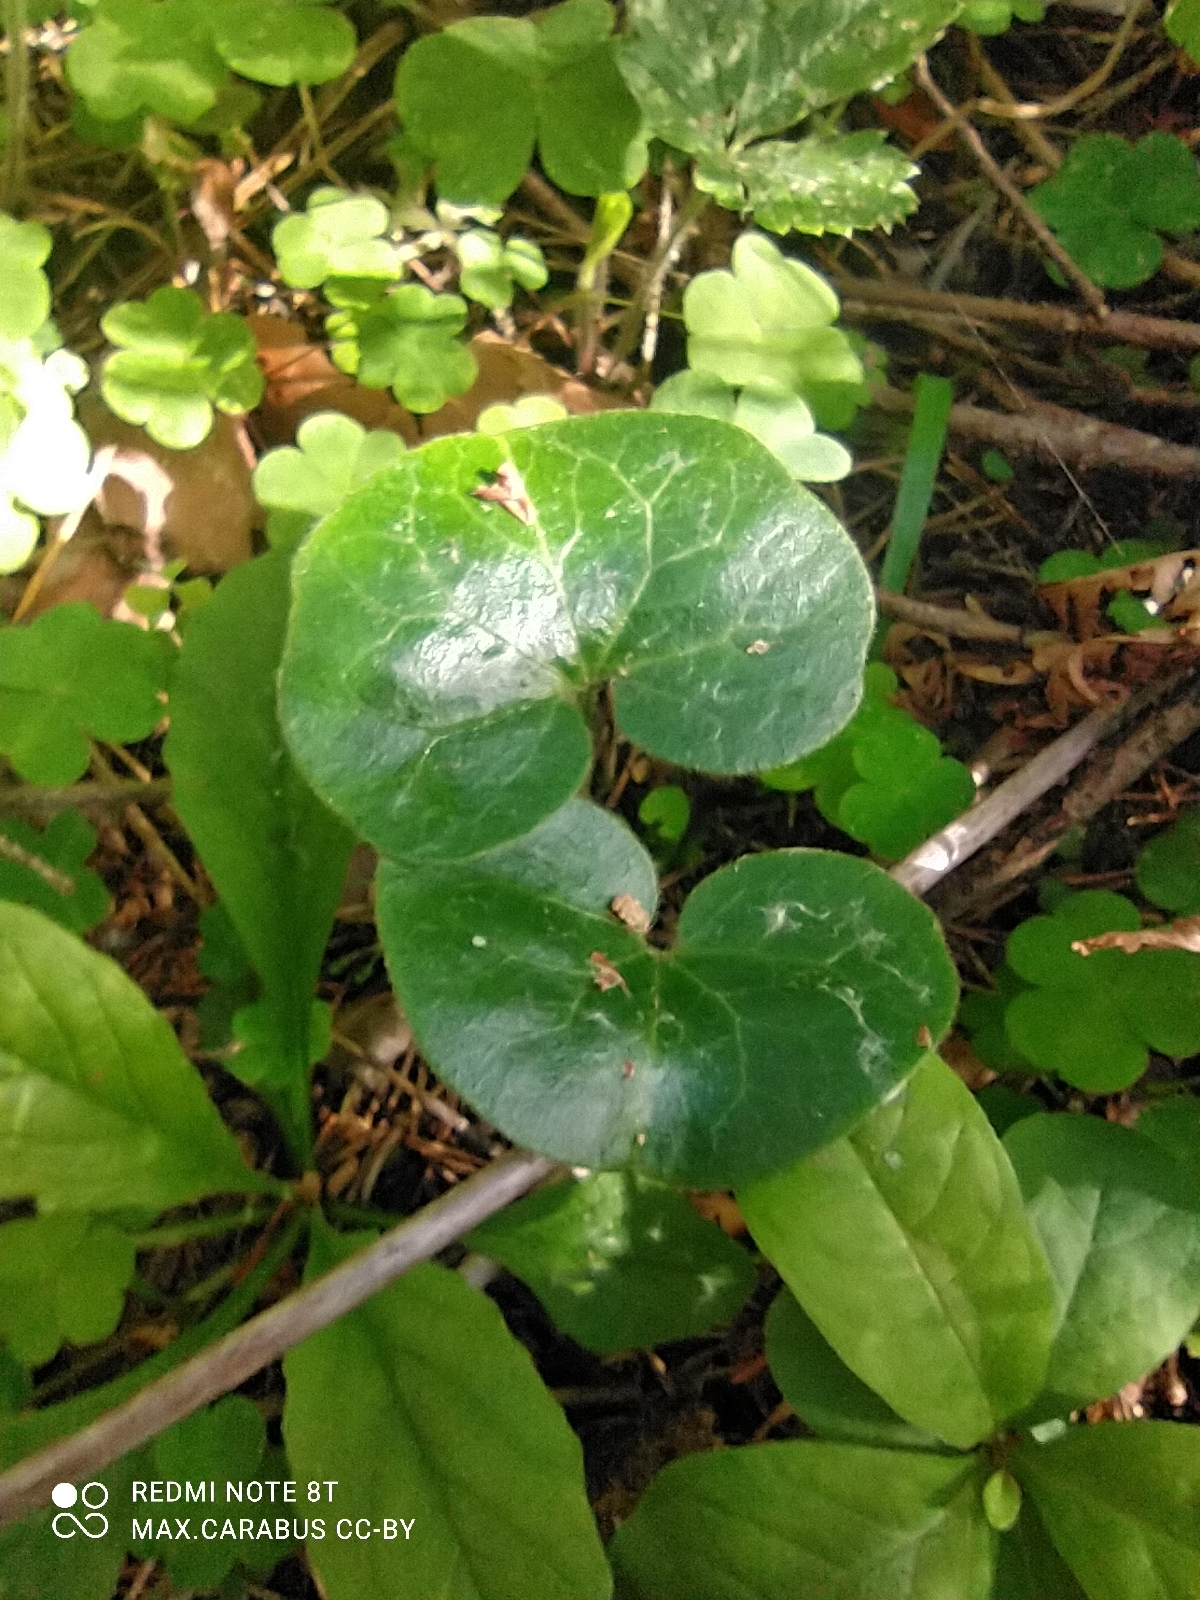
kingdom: Plantae
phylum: Tracheophyta
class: Magnoliopsida
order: Piperales
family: Aristolochiaceae
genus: Asarum
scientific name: Asarum europaeum
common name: Asarabacca
